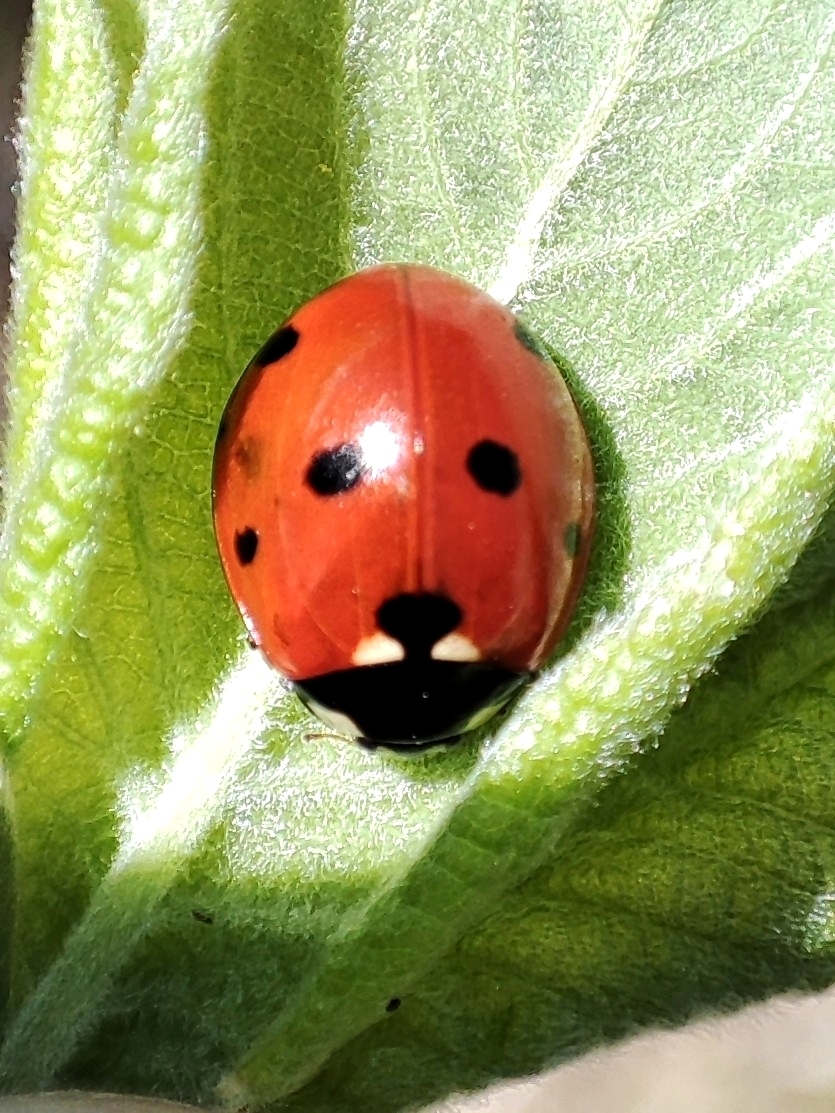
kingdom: Animalia
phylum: Arthropoda
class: Insecta
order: Coleoptera
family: Coccinellidae
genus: Coccinella
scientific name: Coccinella septempunctata
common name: Sevenspotted lady beetle
